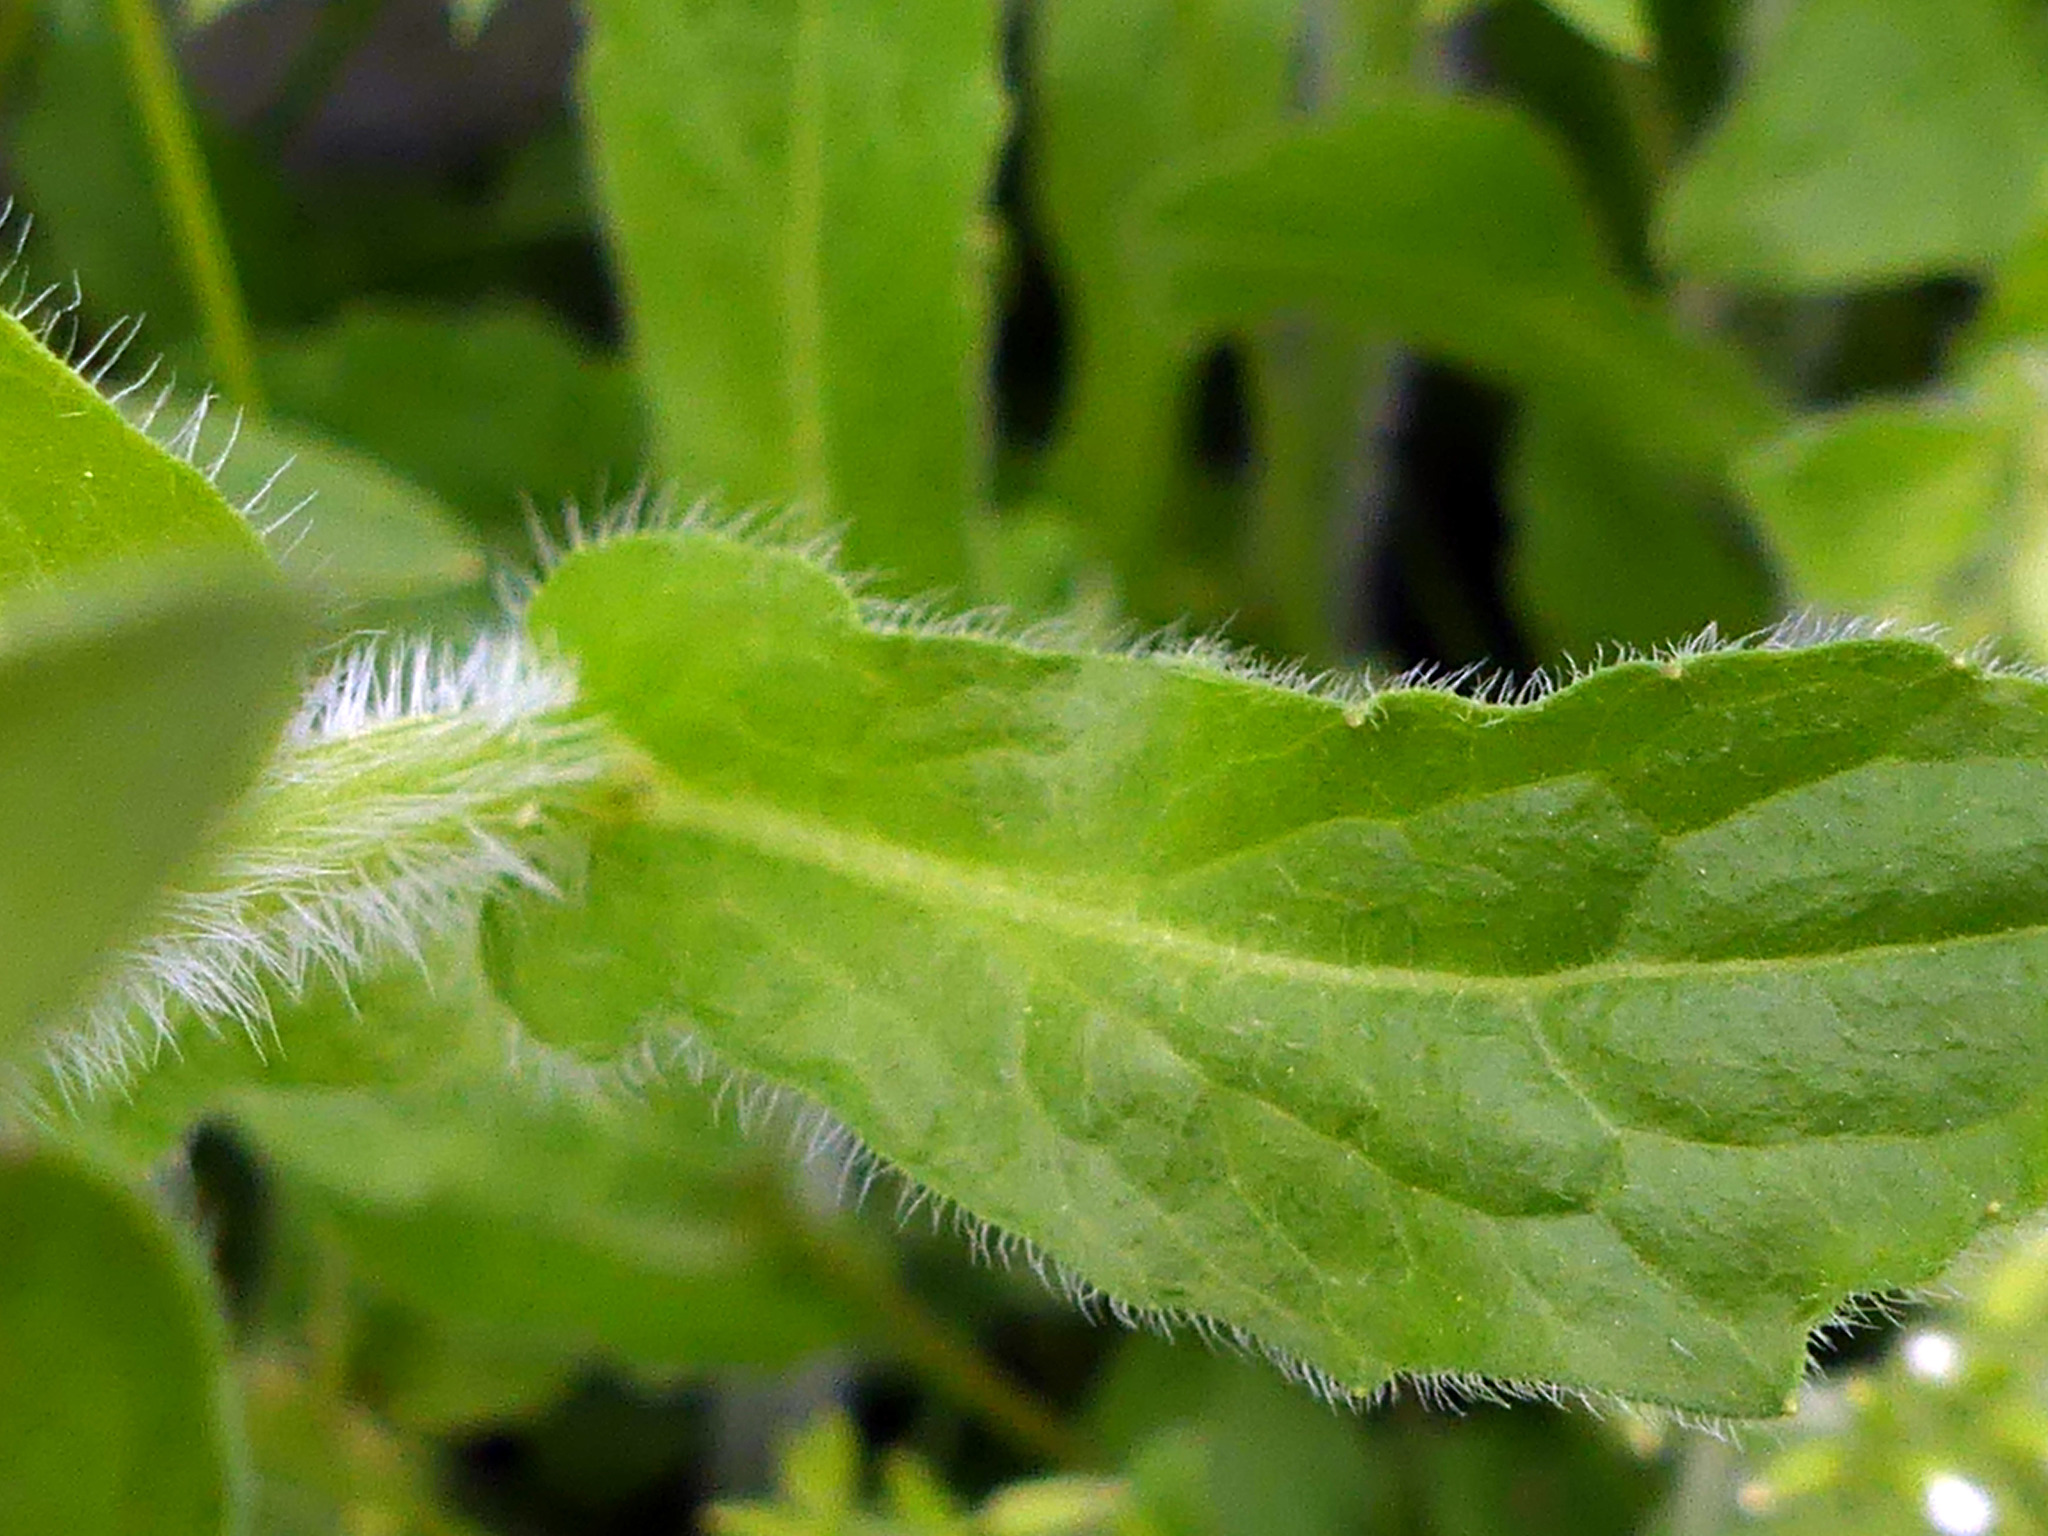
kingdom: Plantae
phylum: Tracheophyta
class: Magnoliopsida
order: Asterales
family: Asteraceae
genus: Erigeron
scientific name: Erigeron philadelphicus
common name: Robin's-plantain
